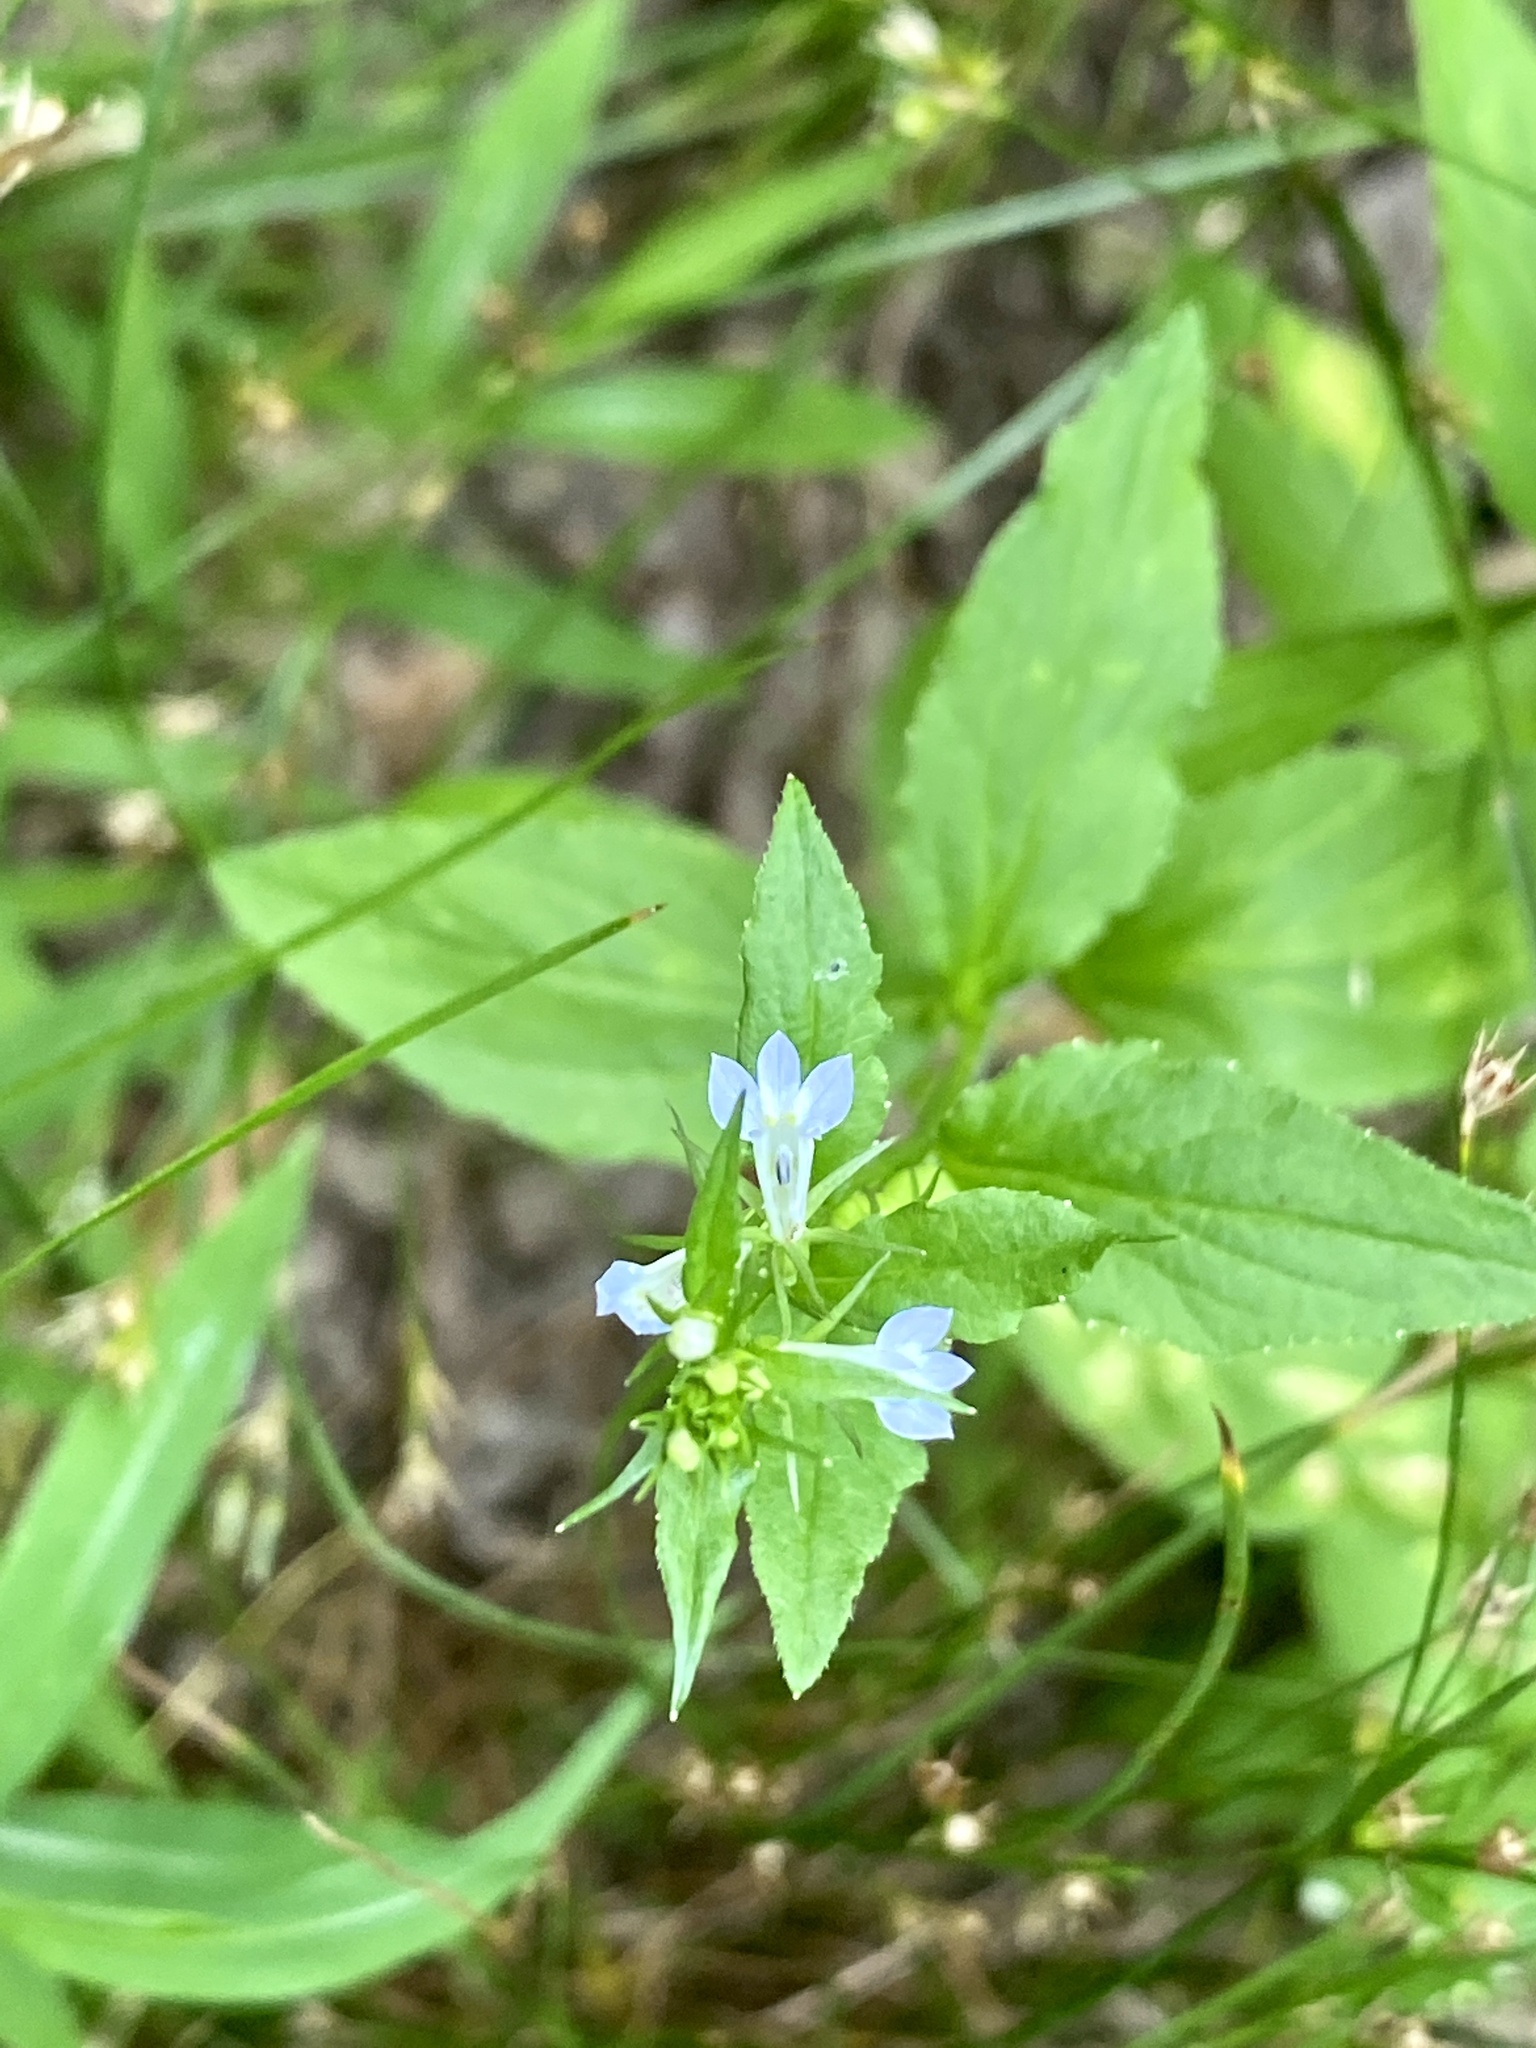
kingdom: Plantae
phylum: Tracheophyta
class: Magnoliopsida
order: Asterales
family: Campanulaceae
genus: Lobelia
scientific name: Lobelia inflata
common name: Indian tobacco
